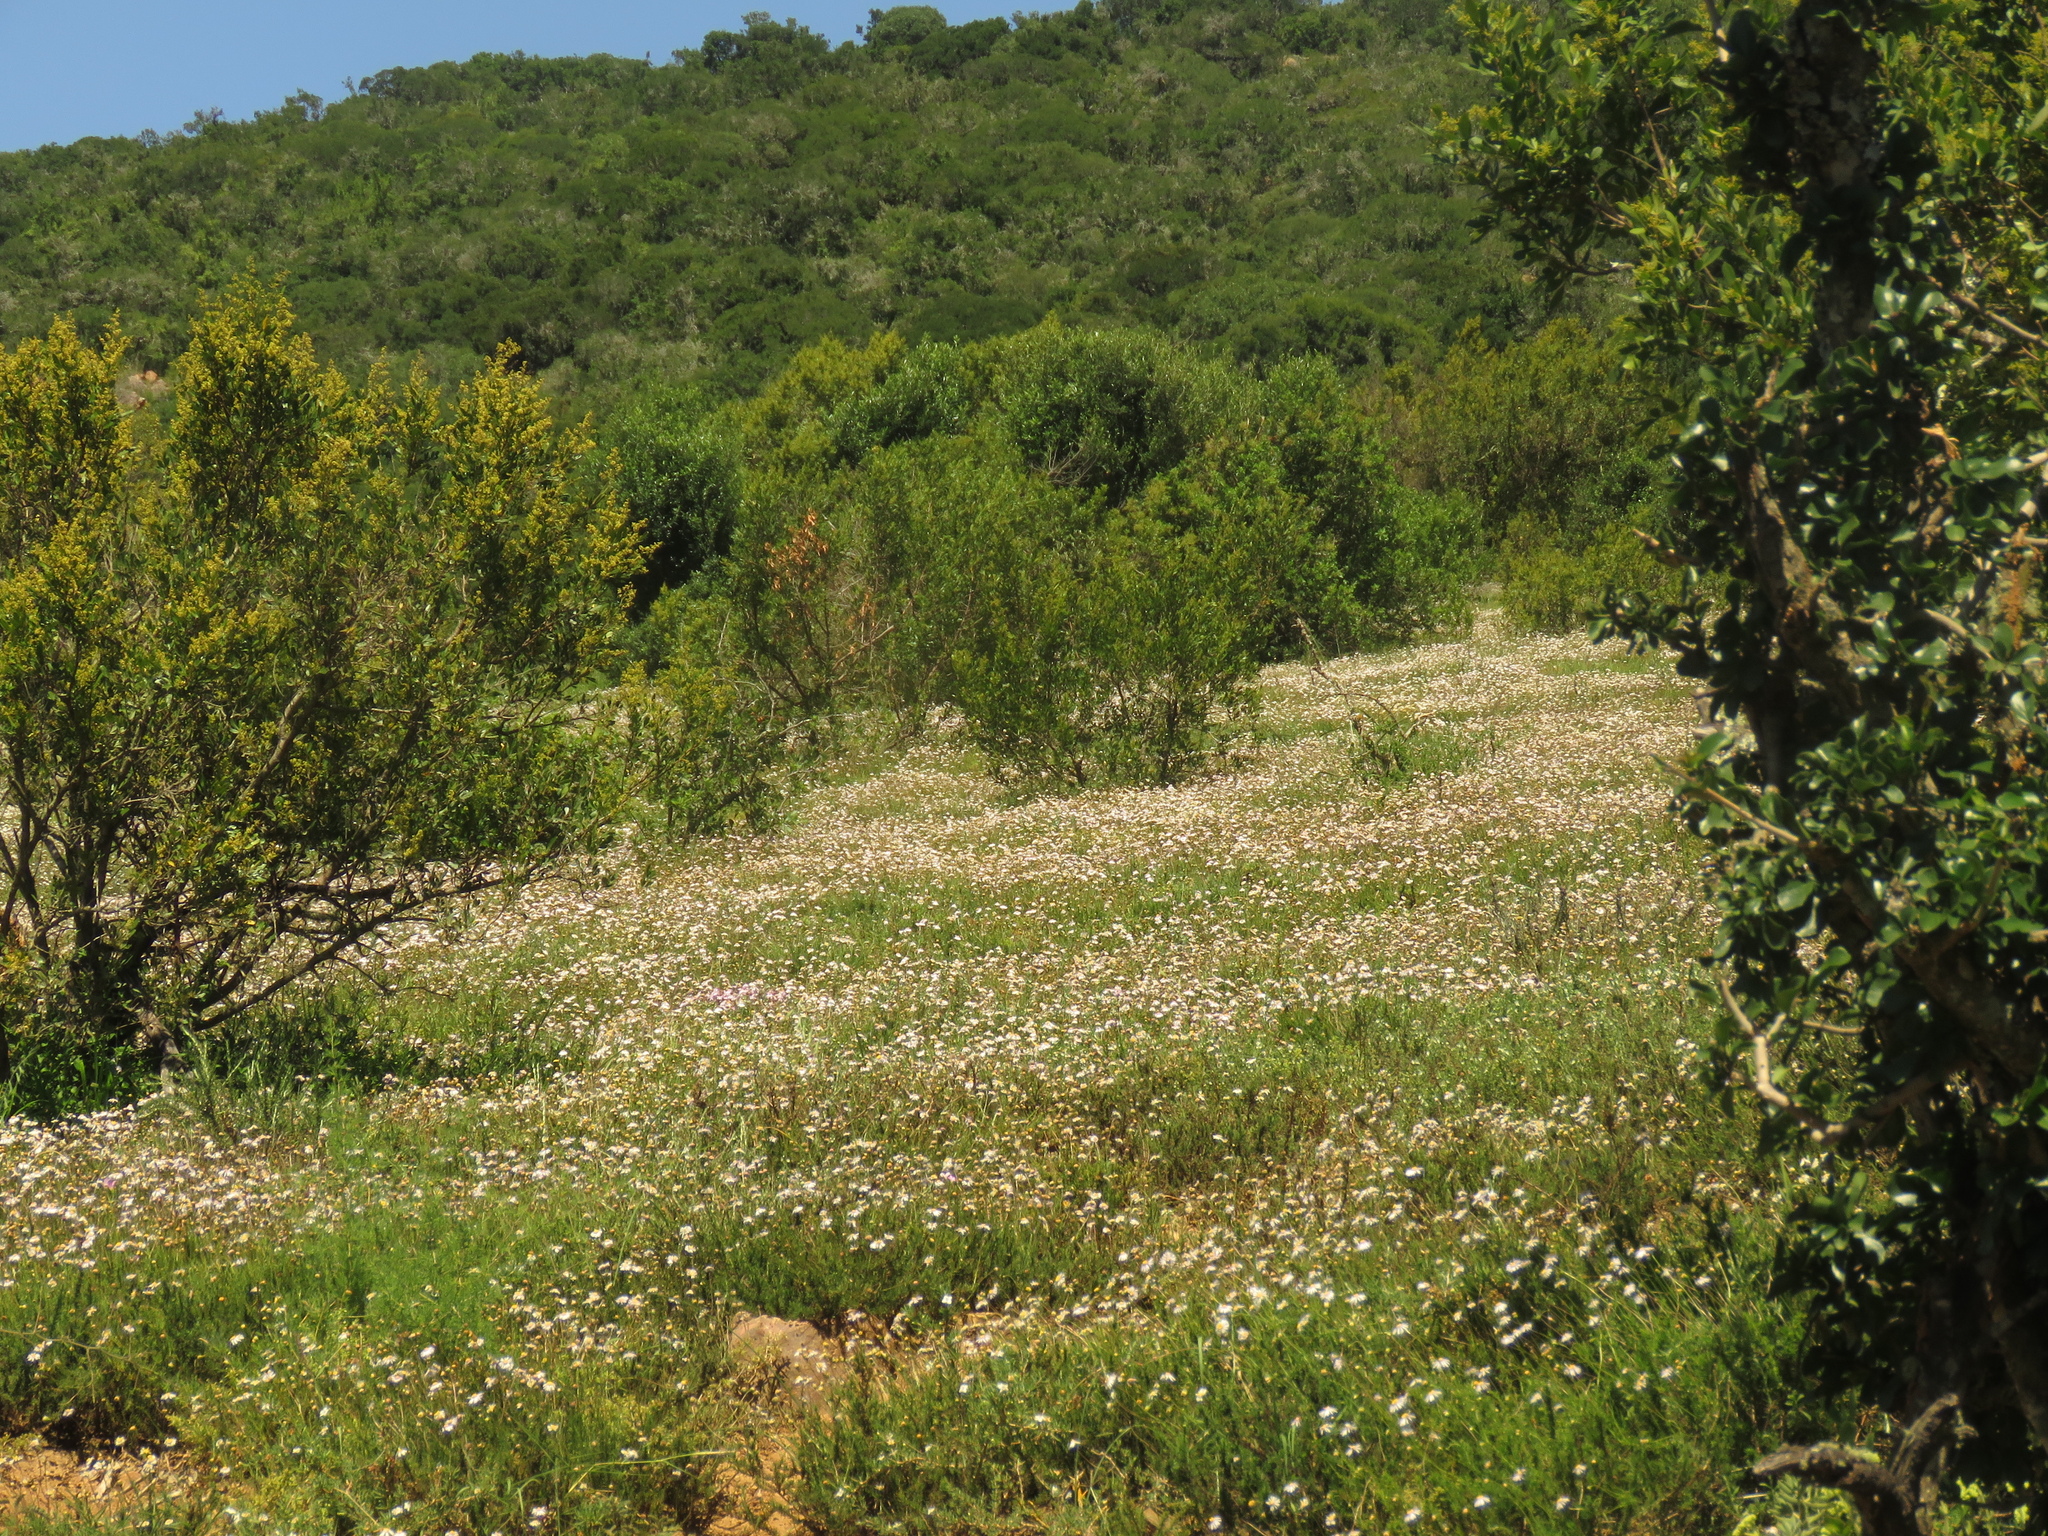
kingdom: Plantae
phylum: Tracheophyta
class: Magnoliopsida
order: Asterales
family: Asteraceae
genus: Felicia
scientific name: Felicia muricata
